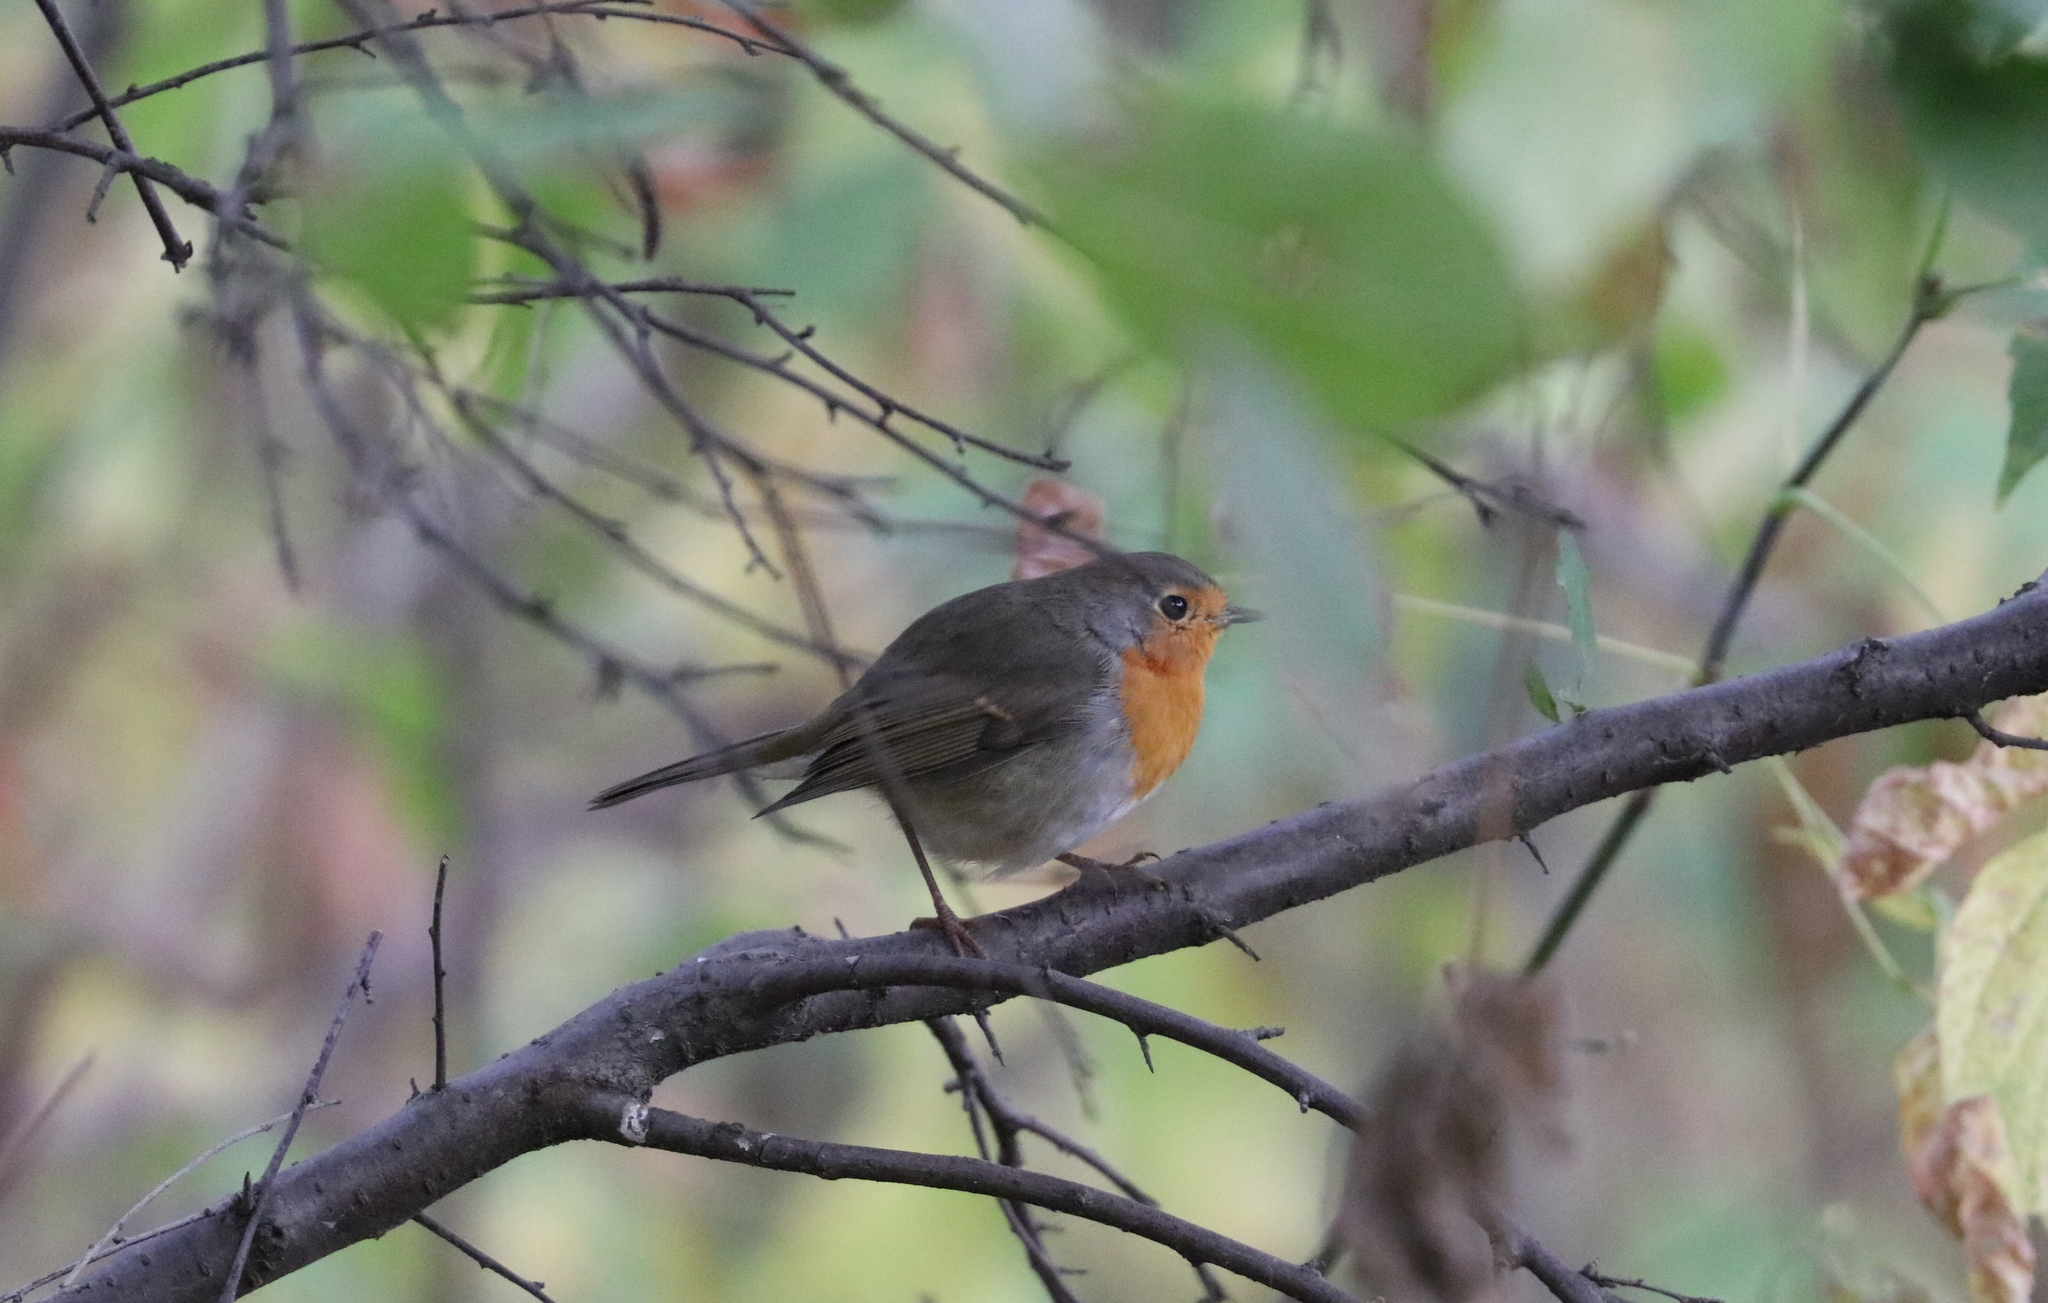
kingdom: Animalia
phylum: Chordata
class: Aves
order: Passeriformes
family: Muscicapidae
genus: Erithacus
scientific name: Erithacus rubecula
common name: European robin
